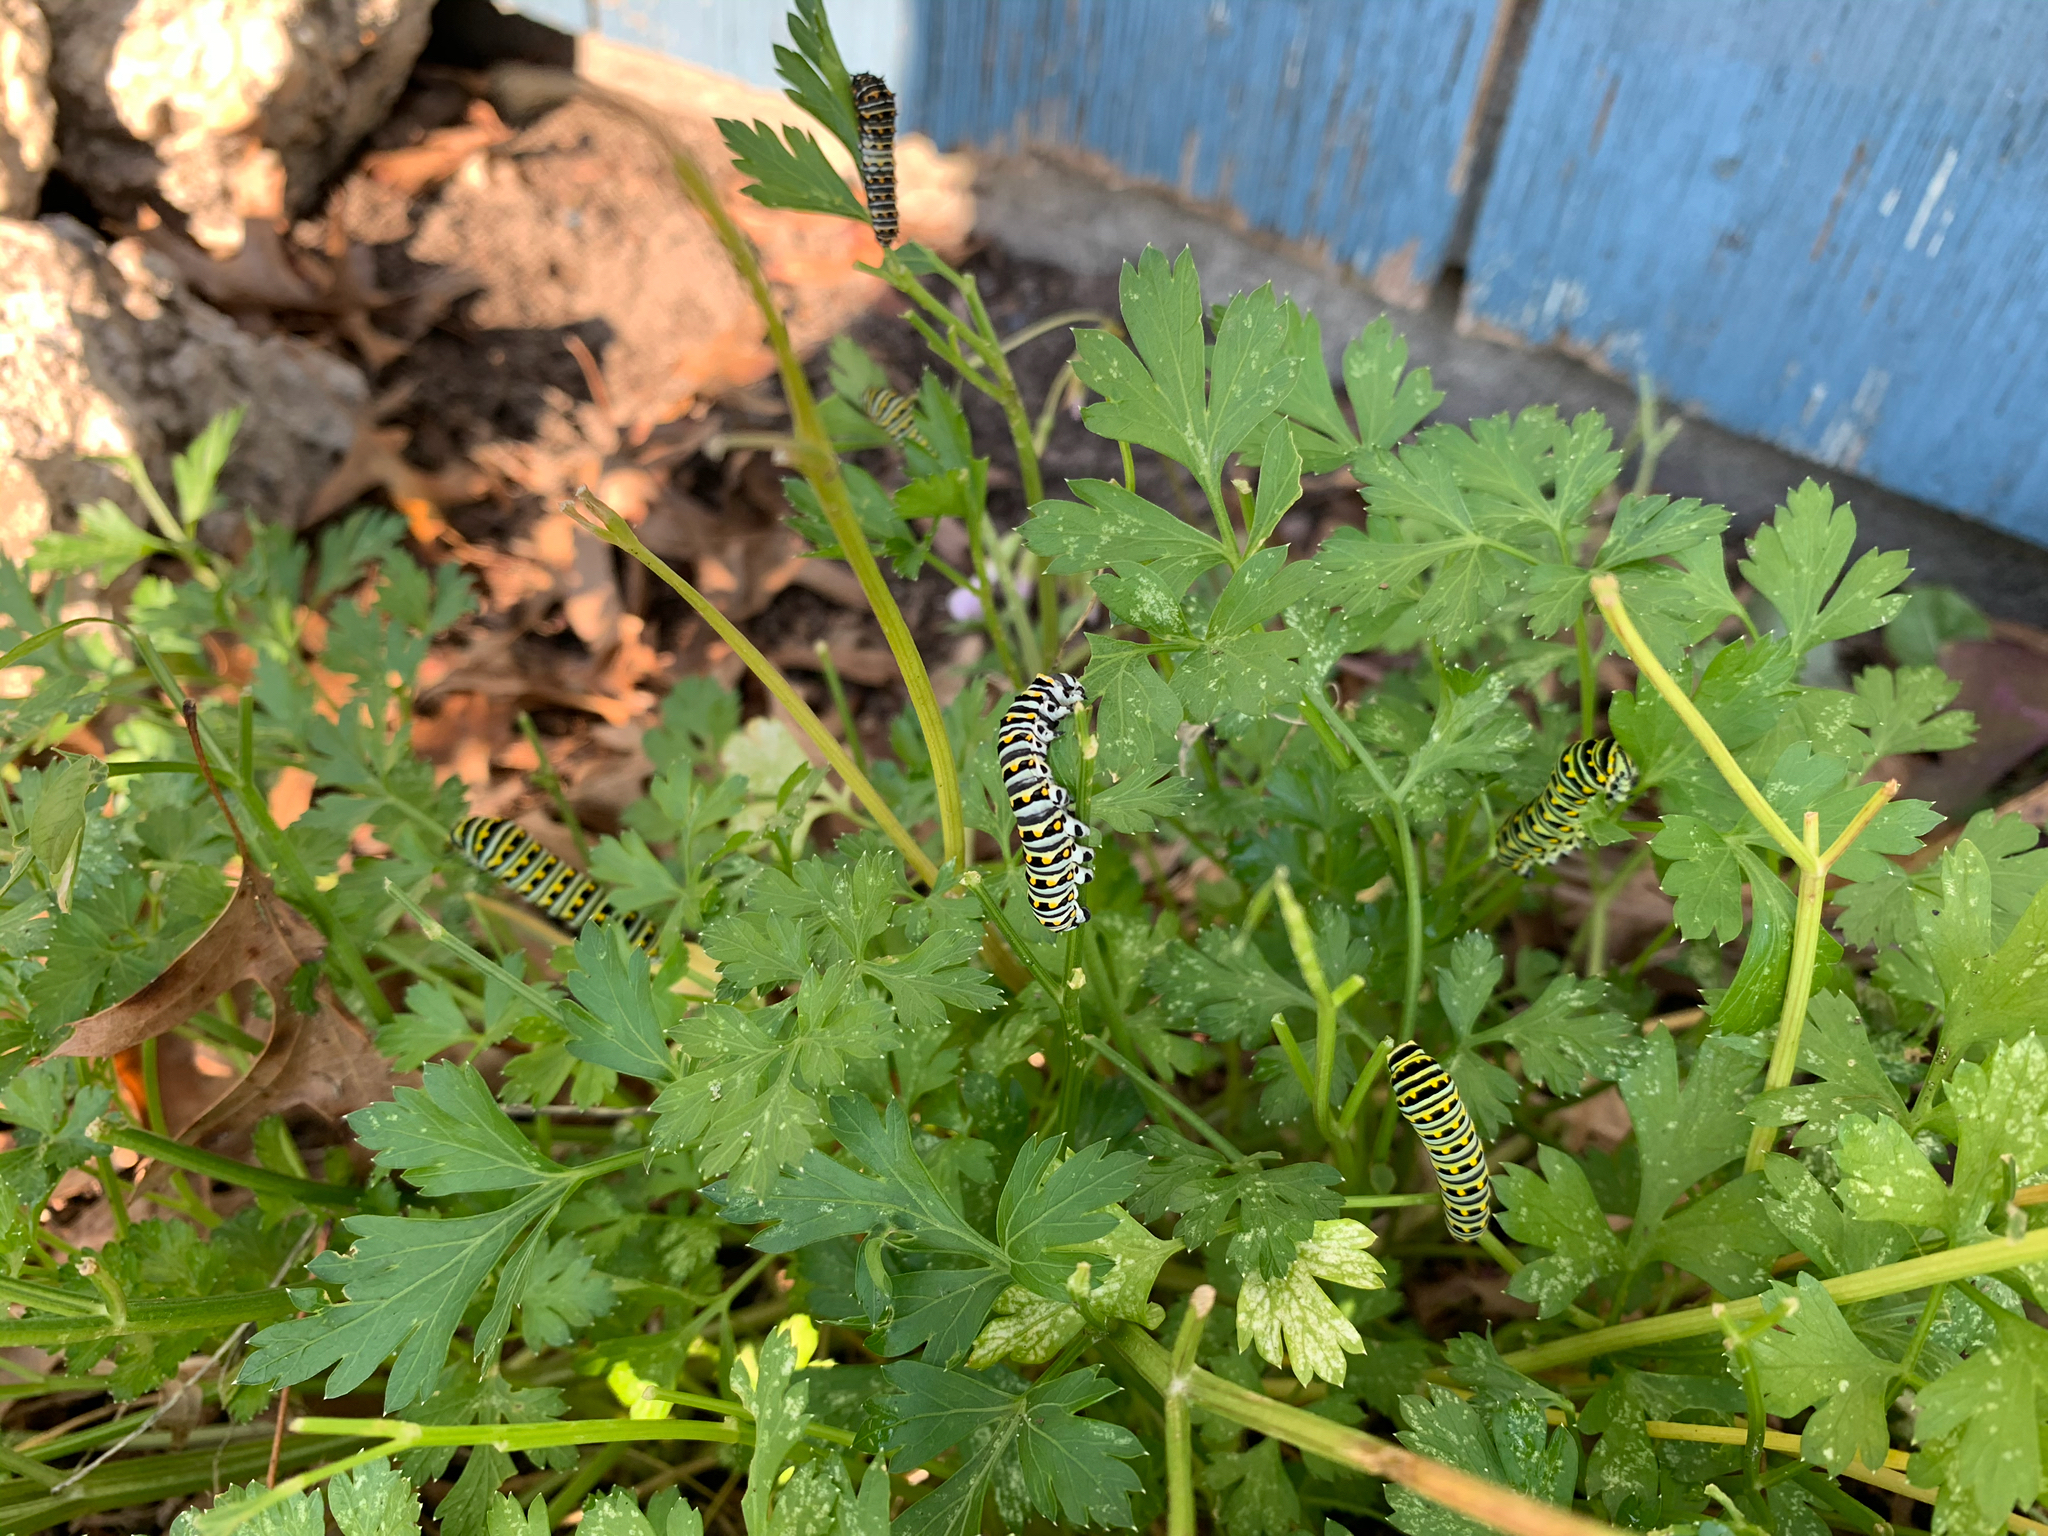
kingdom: Animalia
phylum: Arthropoda
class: Insecta
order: Lepidoptera
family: Papilionidae
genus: Papilio
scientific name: Papilio polyxenes
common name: Black swallowtail
